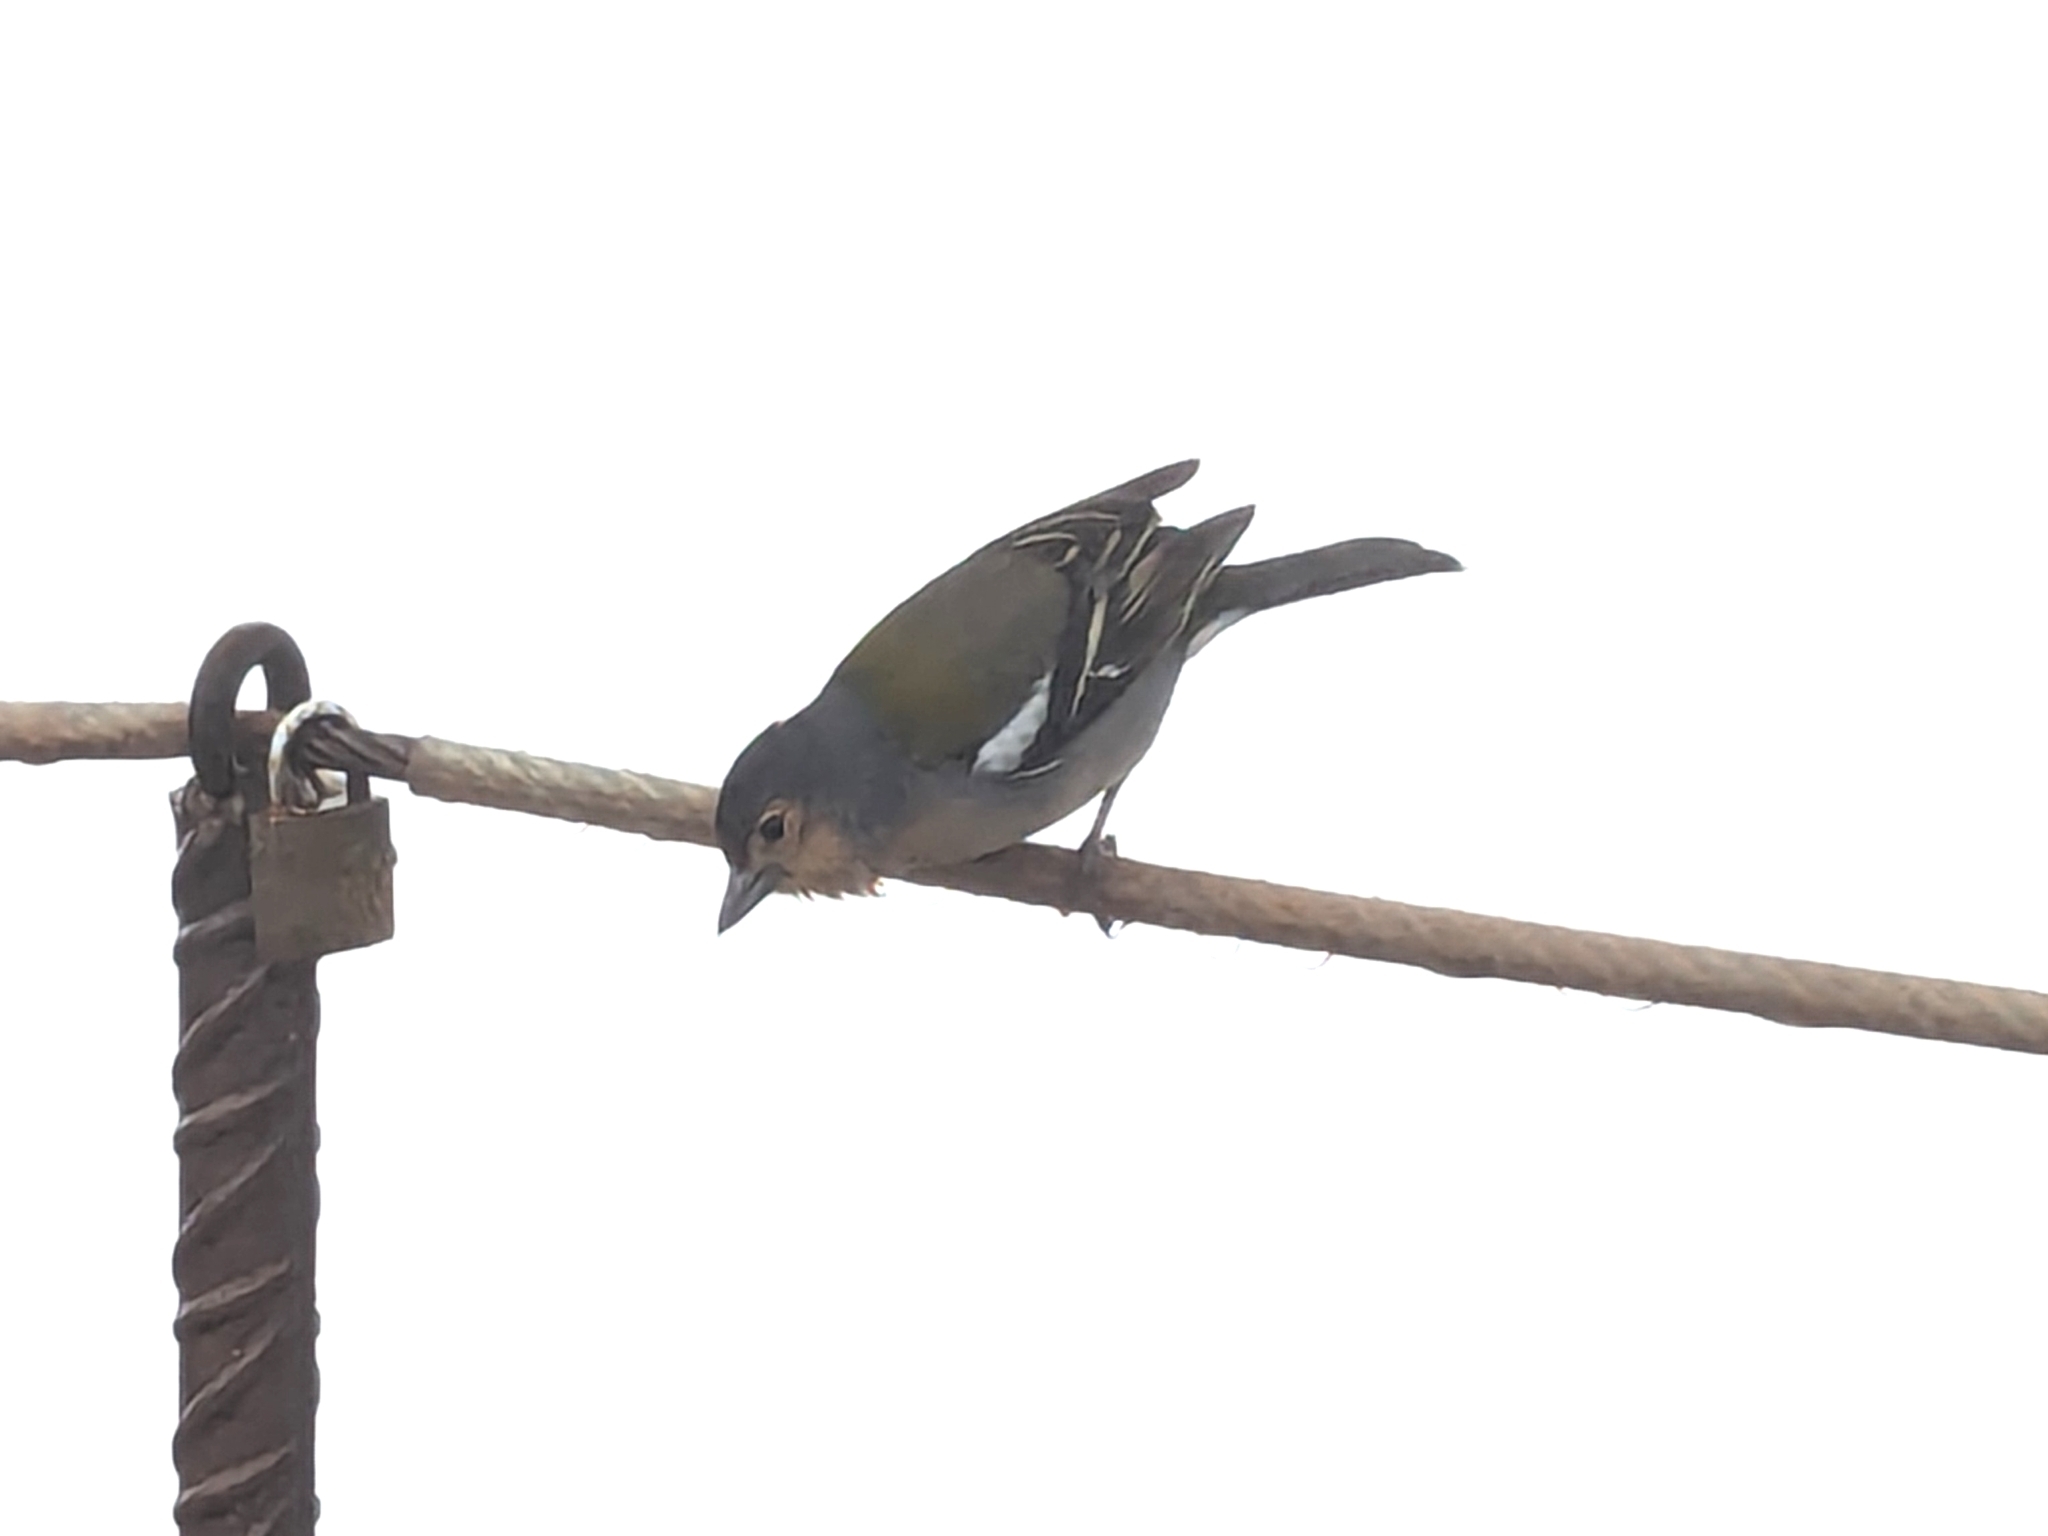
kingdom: Animalia
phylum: Chordata
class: Aves
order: Passeriformes
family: Fringillidae
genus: Fringilla
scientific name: Fringilla maderensis
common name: Madeira chaffinch
